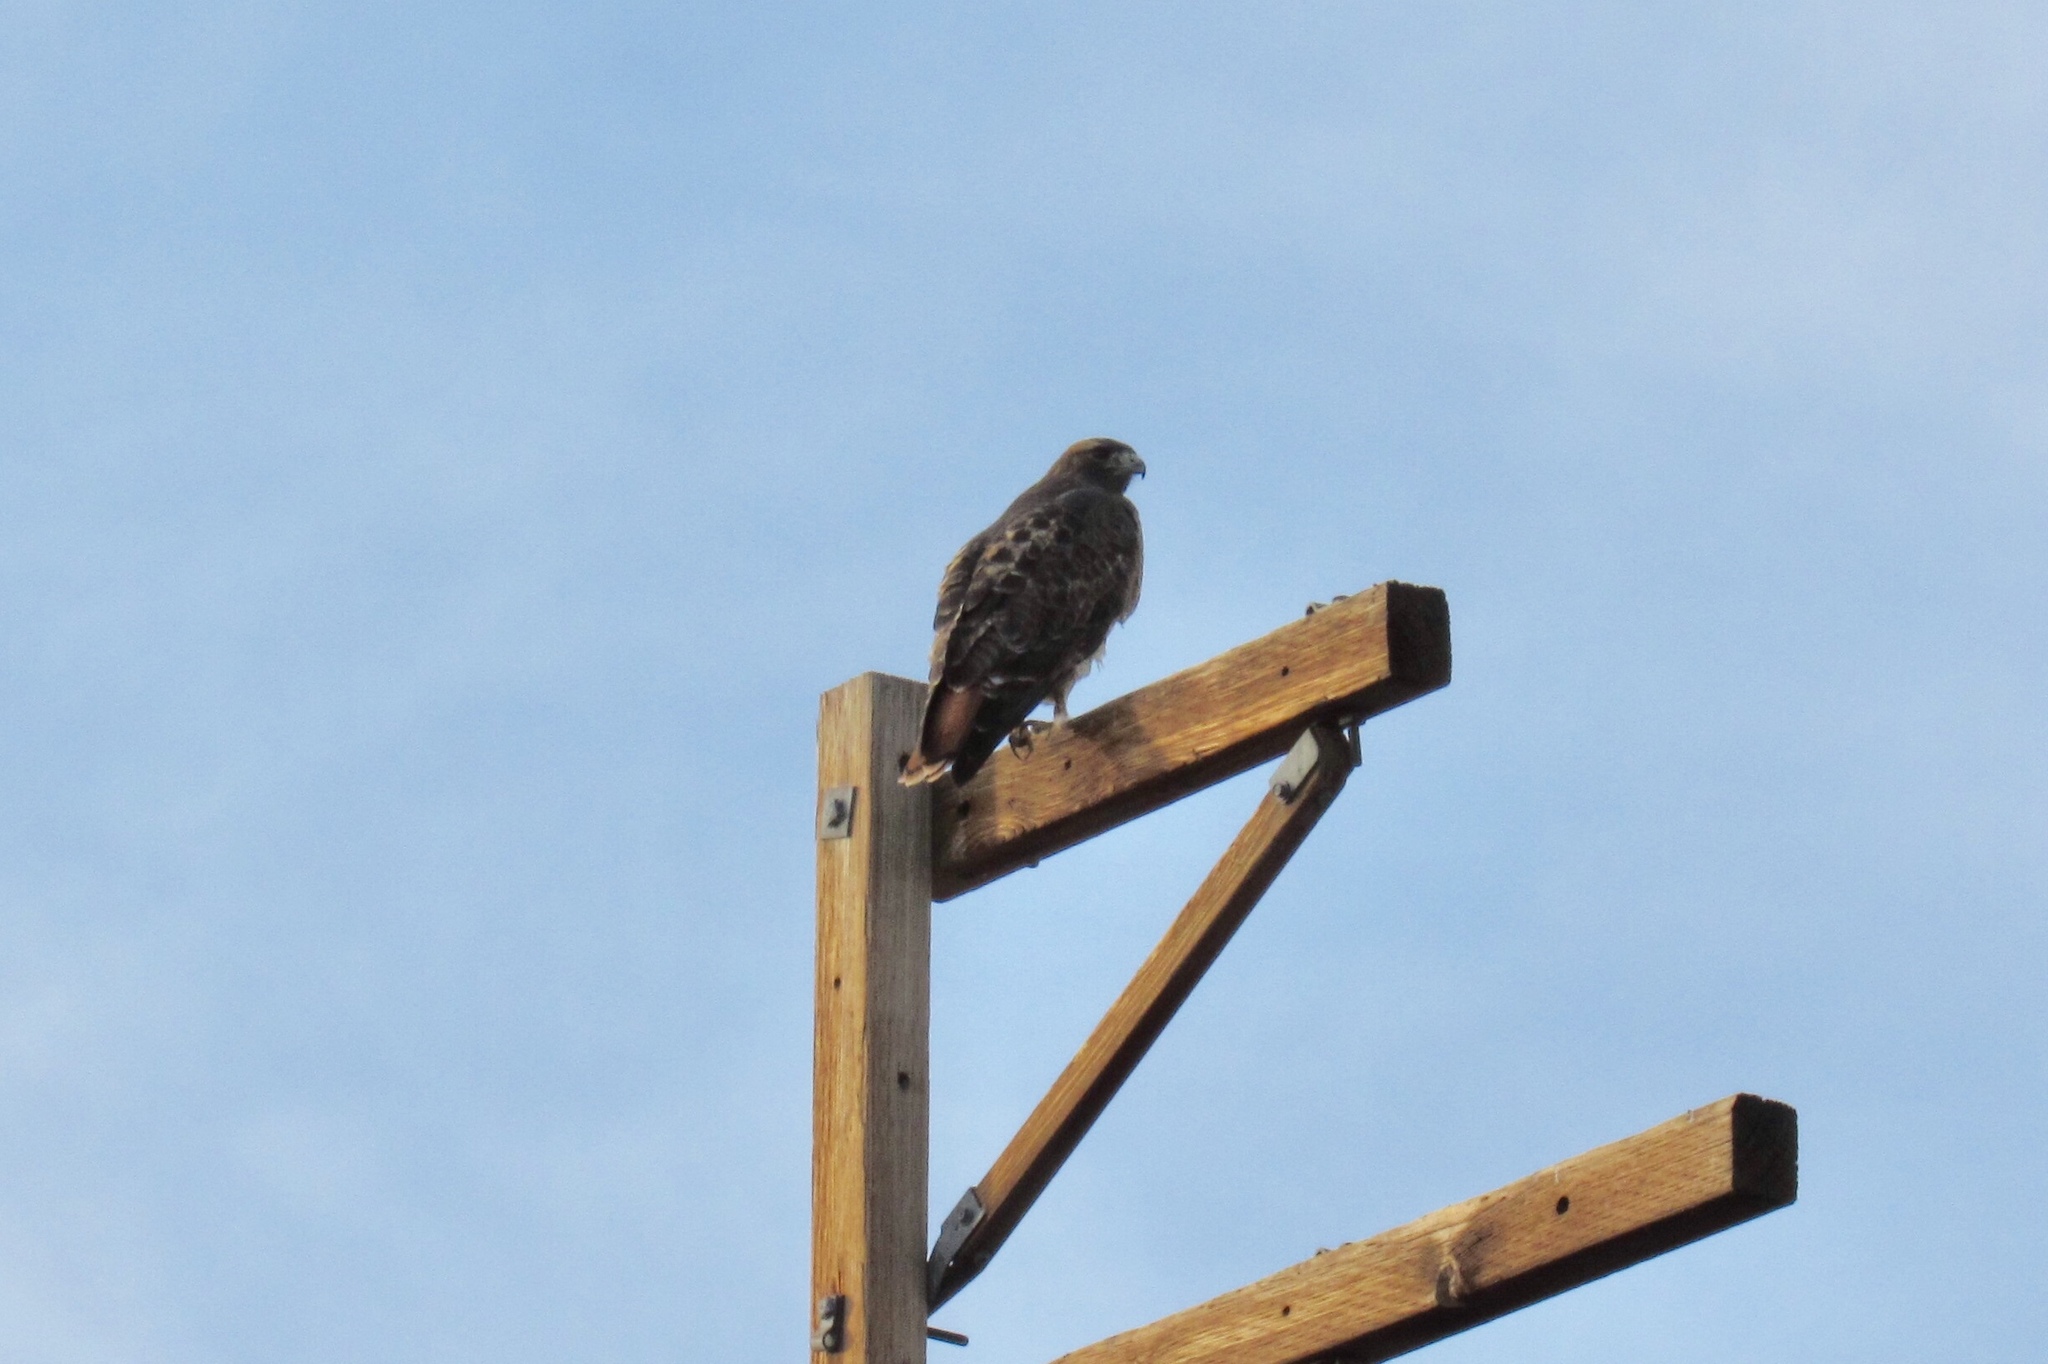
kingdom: Animalia
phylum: Chordata
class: Aves
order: Accipitriformes
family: Accipitridae
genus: Buteo
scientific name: Buteo jamaicensis
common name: Red-tailed hawk
